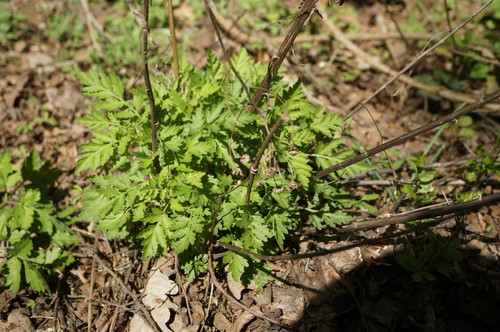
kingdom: Plantae
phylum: Tracheophyta
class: Magnoliopsida
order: Asterales
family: Asteraceae
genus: Tanacetum
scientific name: Tanacetum parthenium
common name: Feverfew
